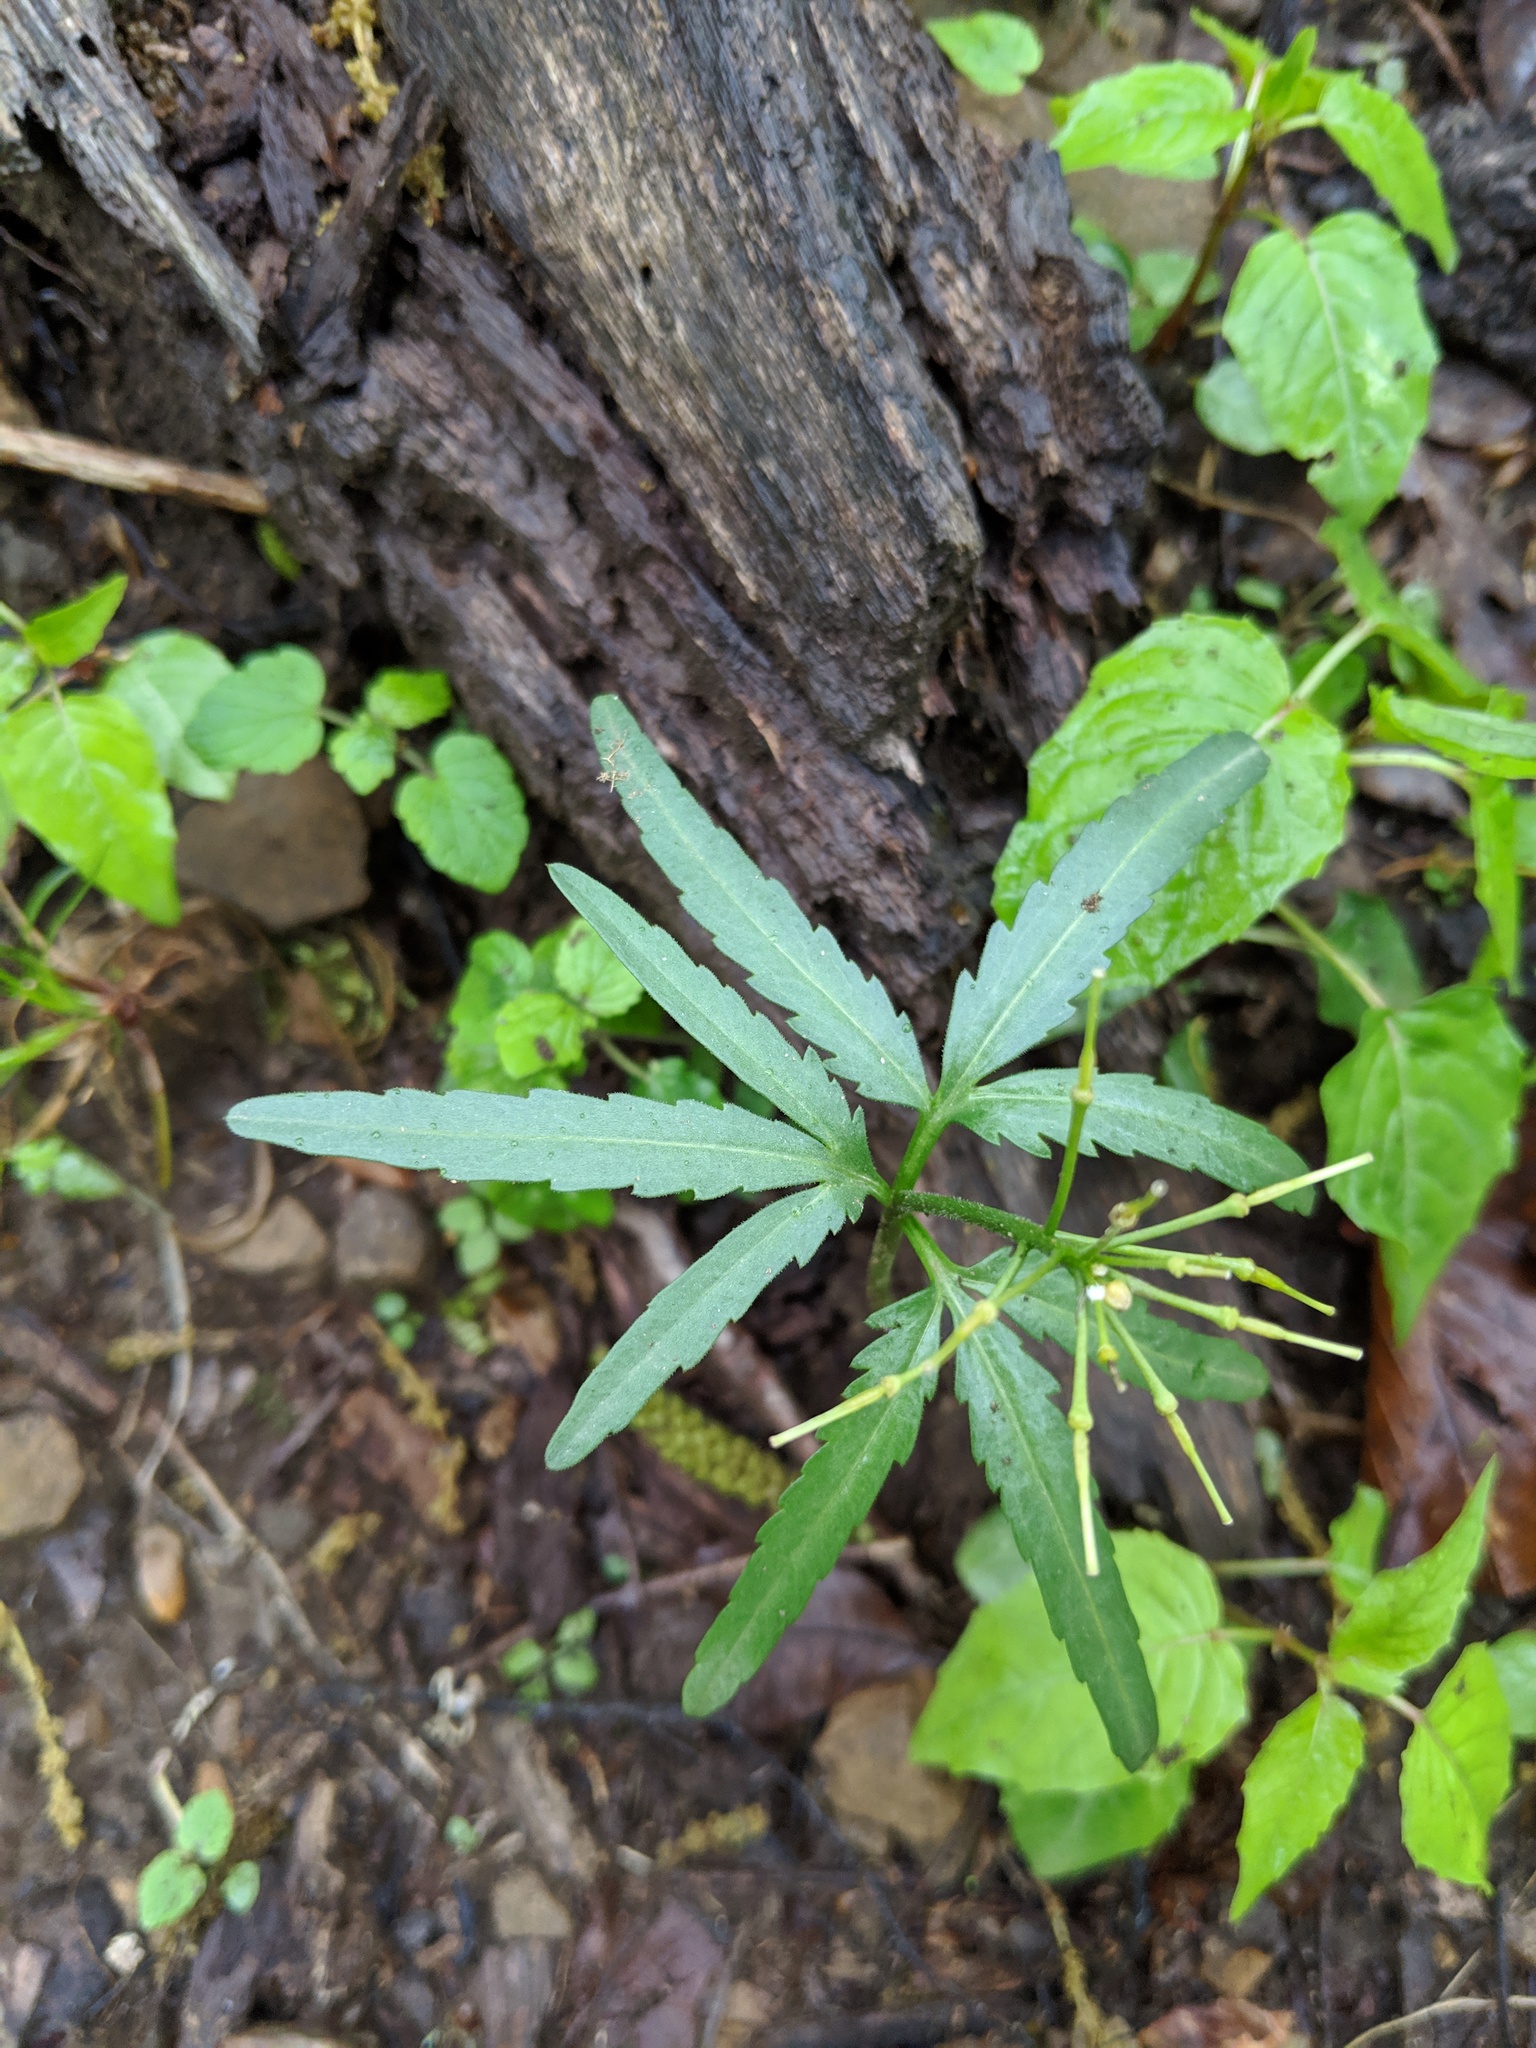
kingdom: Plantae
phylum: Tracheophyta
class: Magnoliopsida
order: Brassicales
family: Brassicaceae
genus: Cardamine
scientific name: Cardamine concatenata
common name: Cut-leaf toothcup
